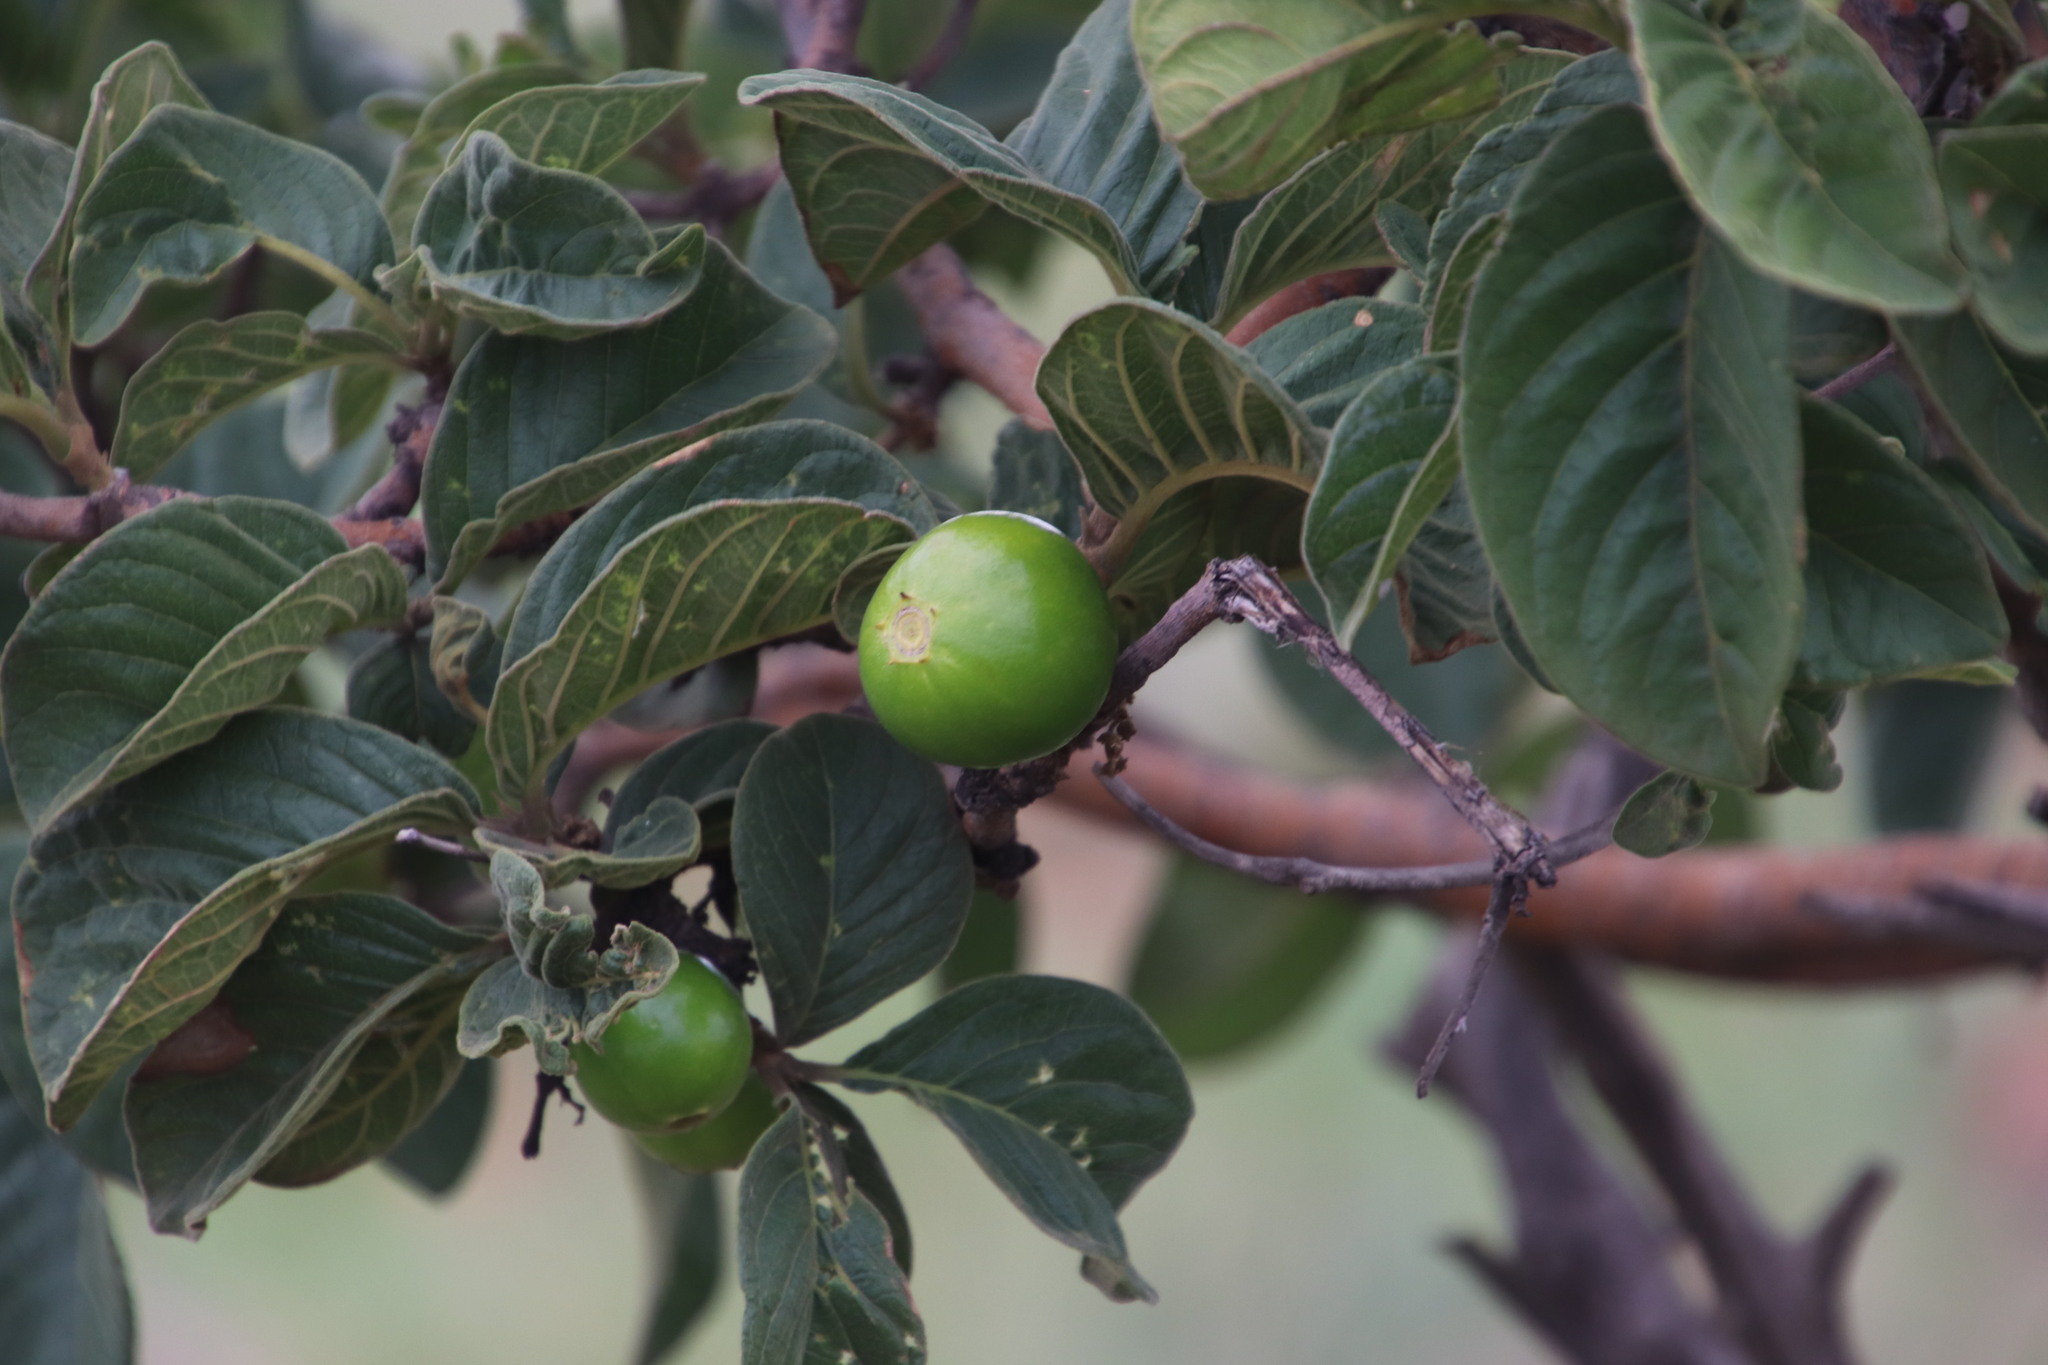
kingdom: Plantae
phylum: Tracheophyta
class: Magnoliopsida
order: Gentianales
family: Rubiaceae
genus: Vangueria
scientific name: Vangueria infausta
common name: Medlar
